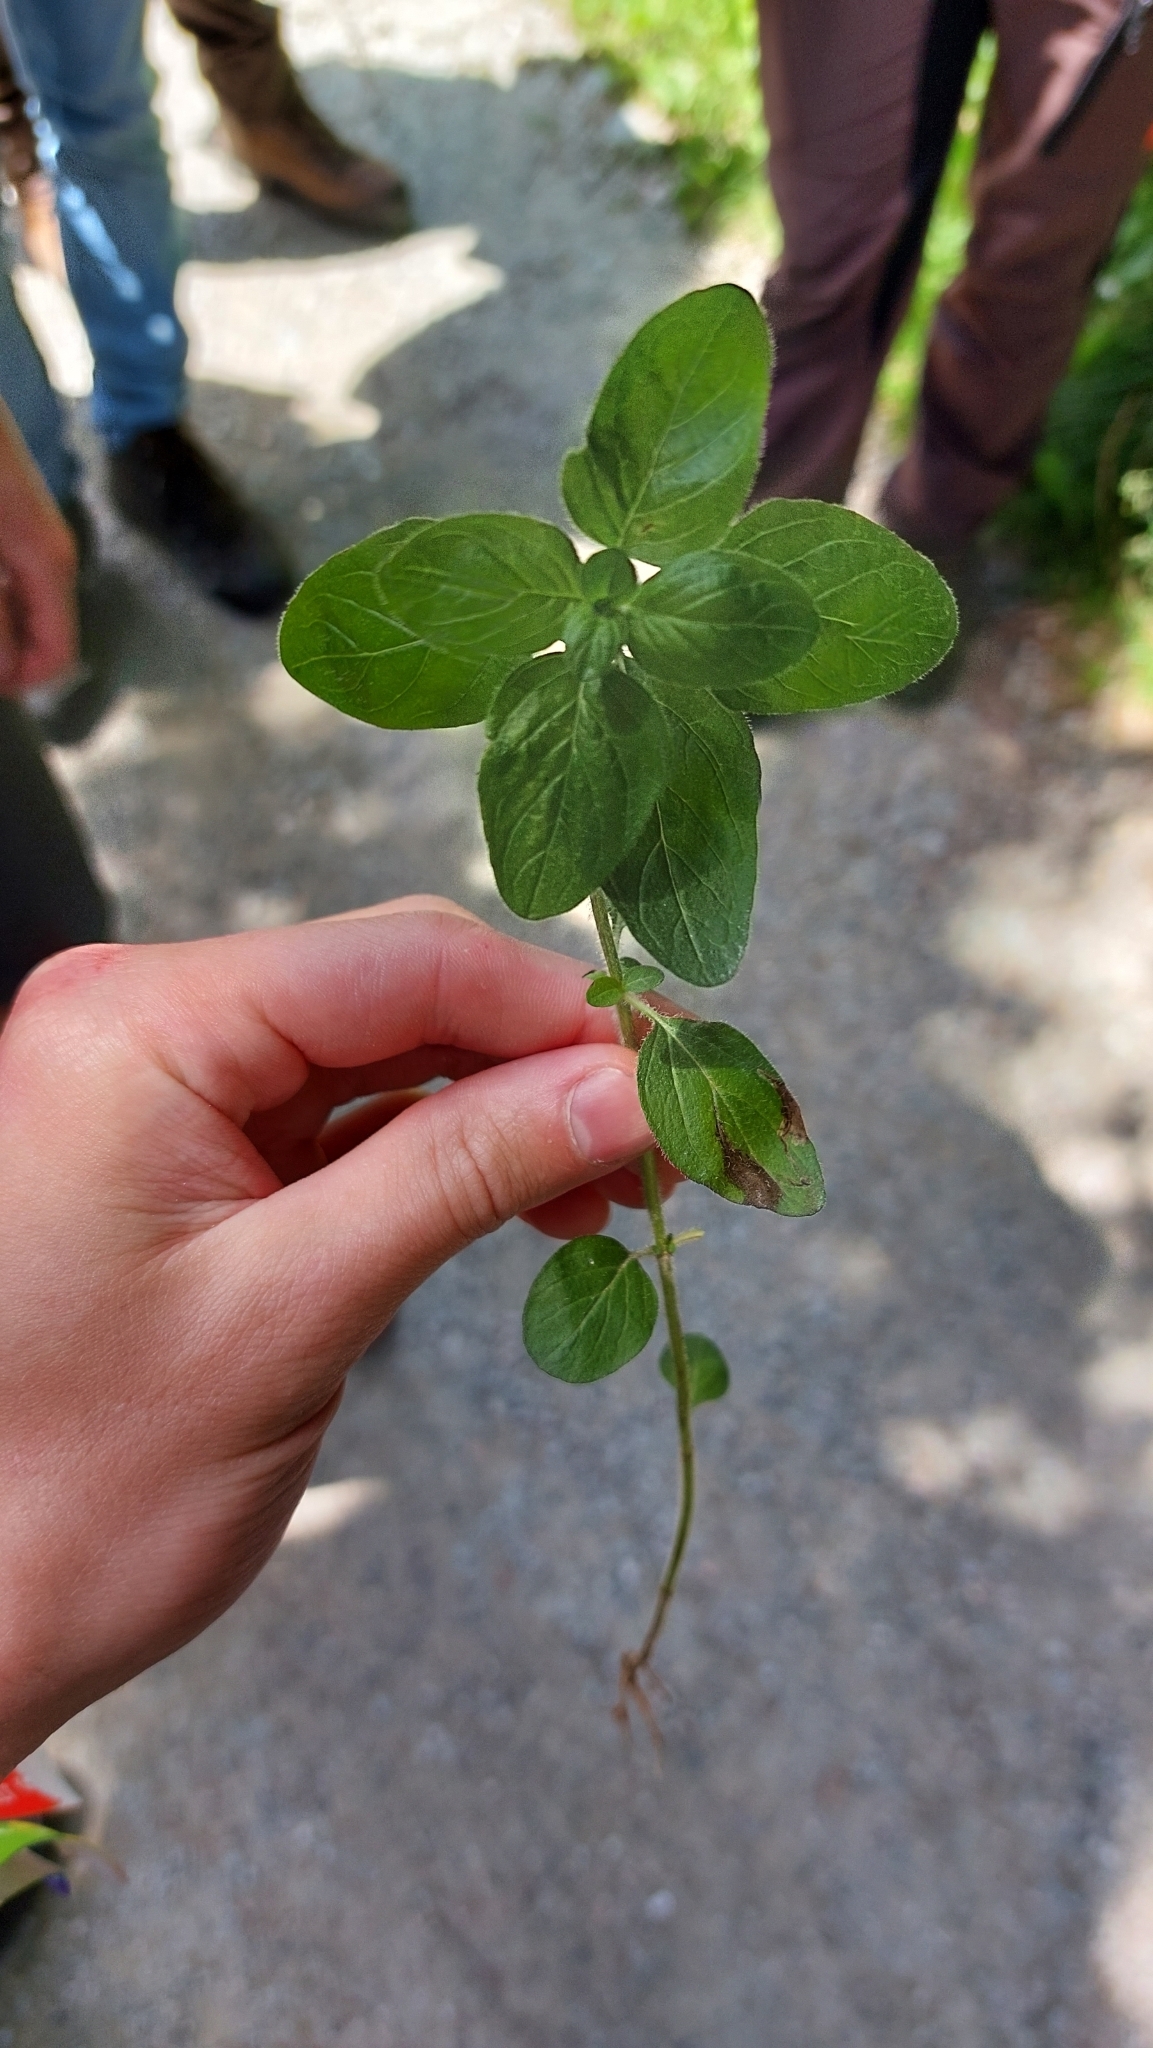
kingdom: Plantae
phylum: Tracheophyta
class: Magnoliopsida
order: Lamiales
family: Lamiaceae
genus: Origanum
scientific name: Origanum vulgare
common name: Wild marjoram
